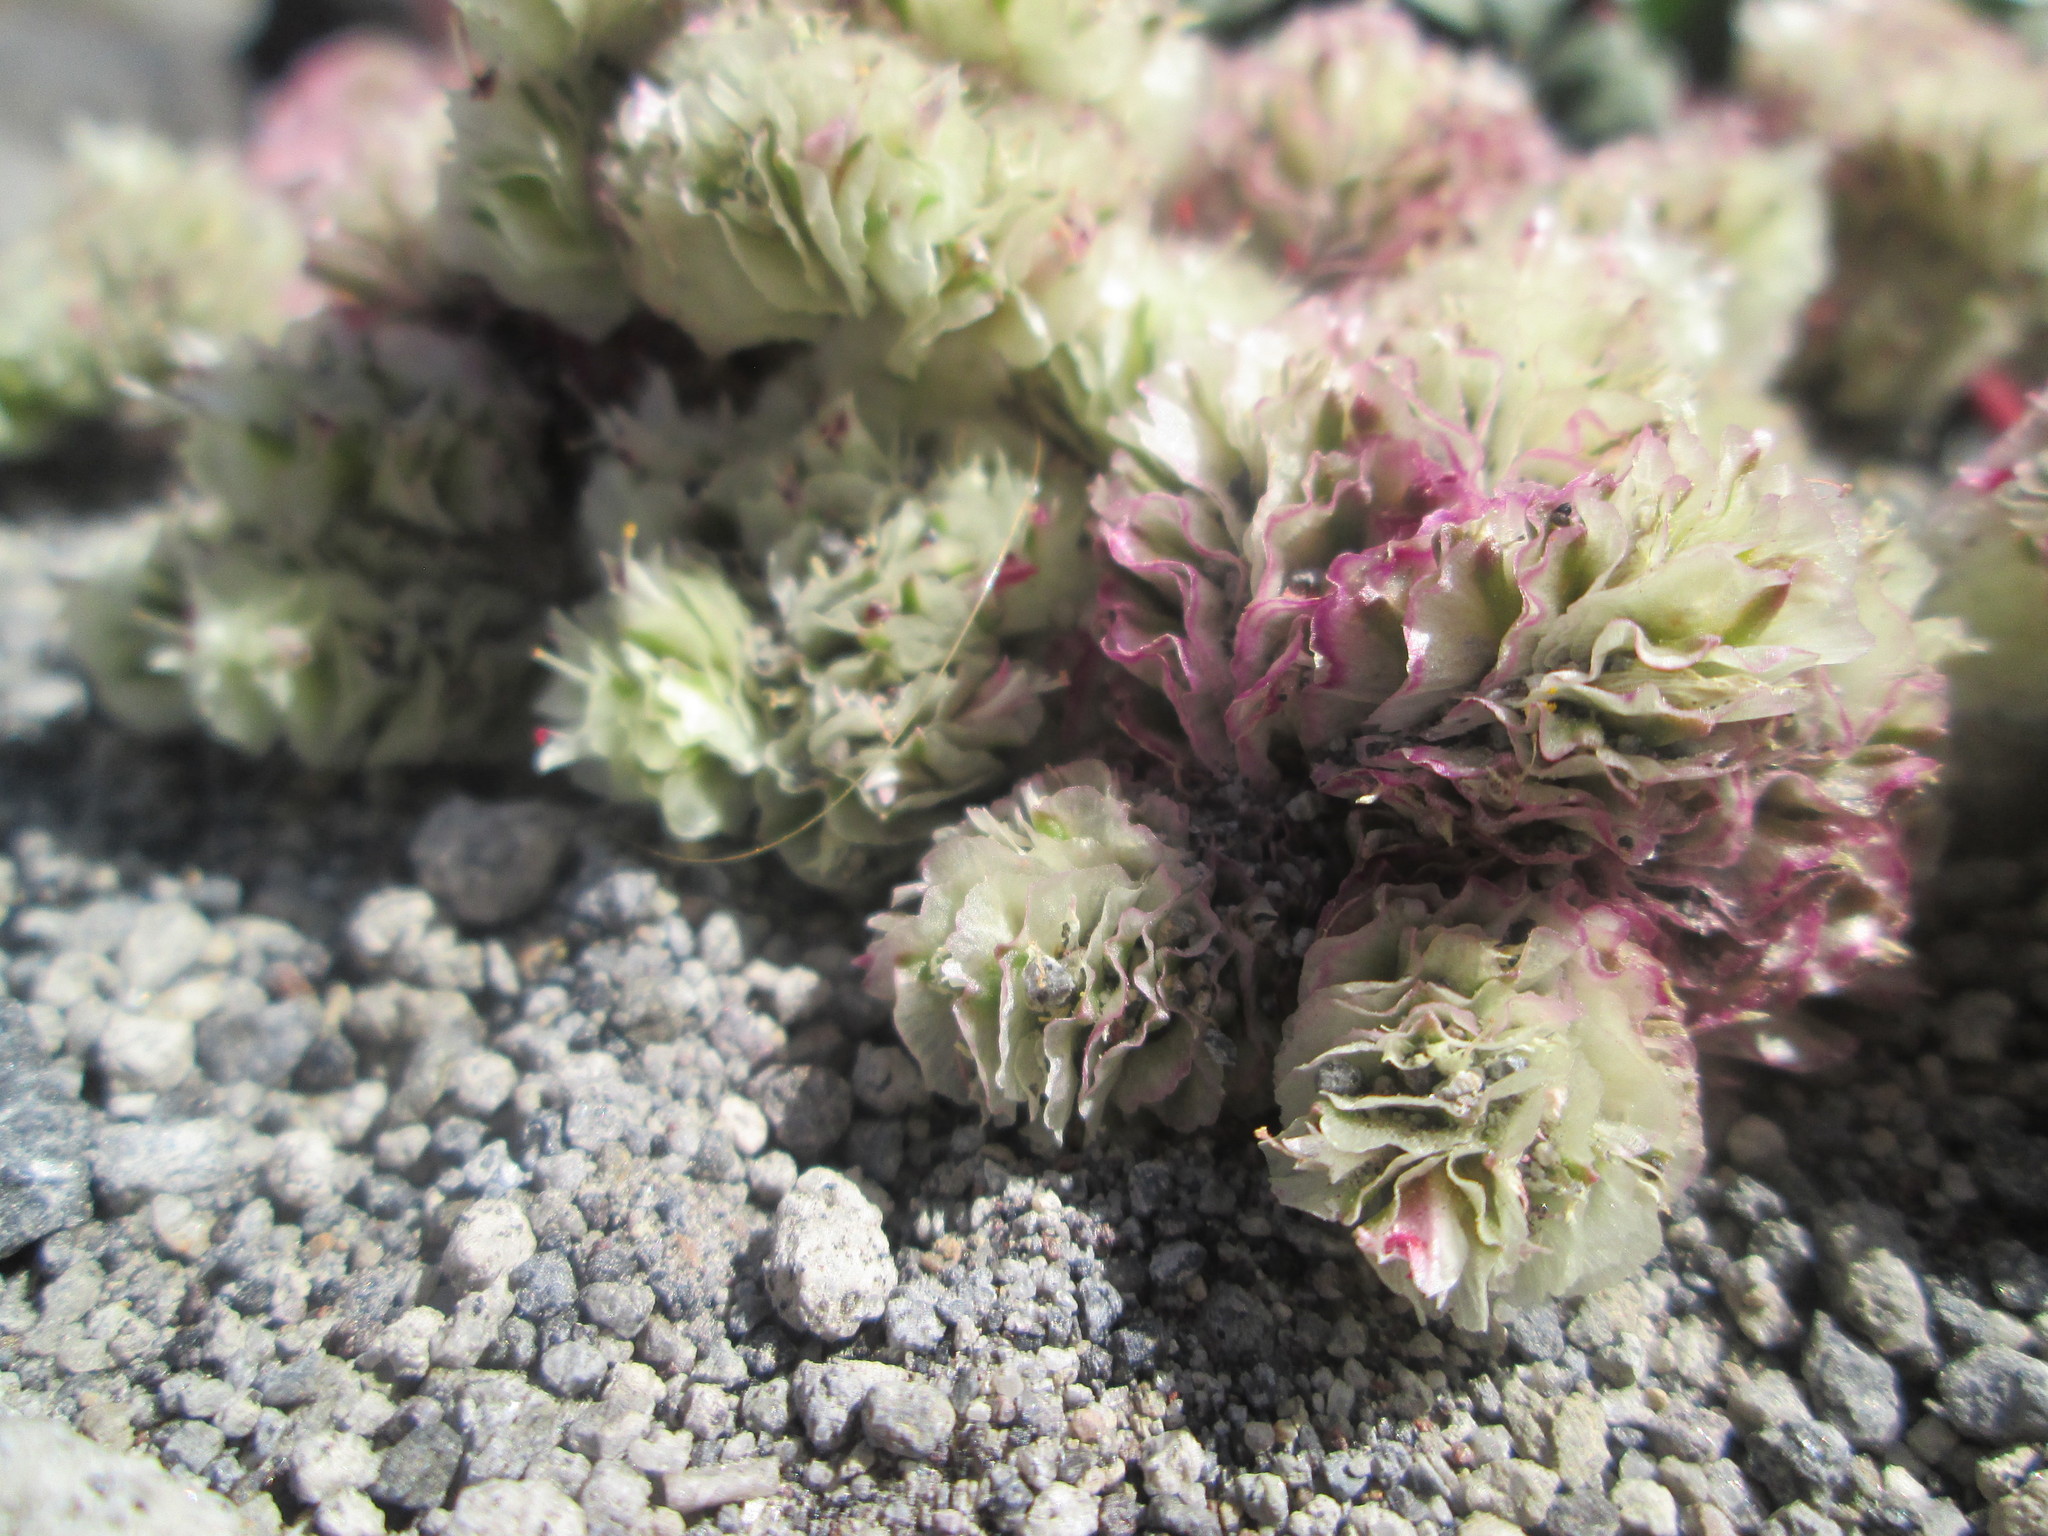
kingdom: Plantae
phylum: Tracheophyta
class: Magnoliopsida
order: Caryophyllales
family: Montiaceae
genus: Calyptridium
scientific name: Calyptridium umbellatum
